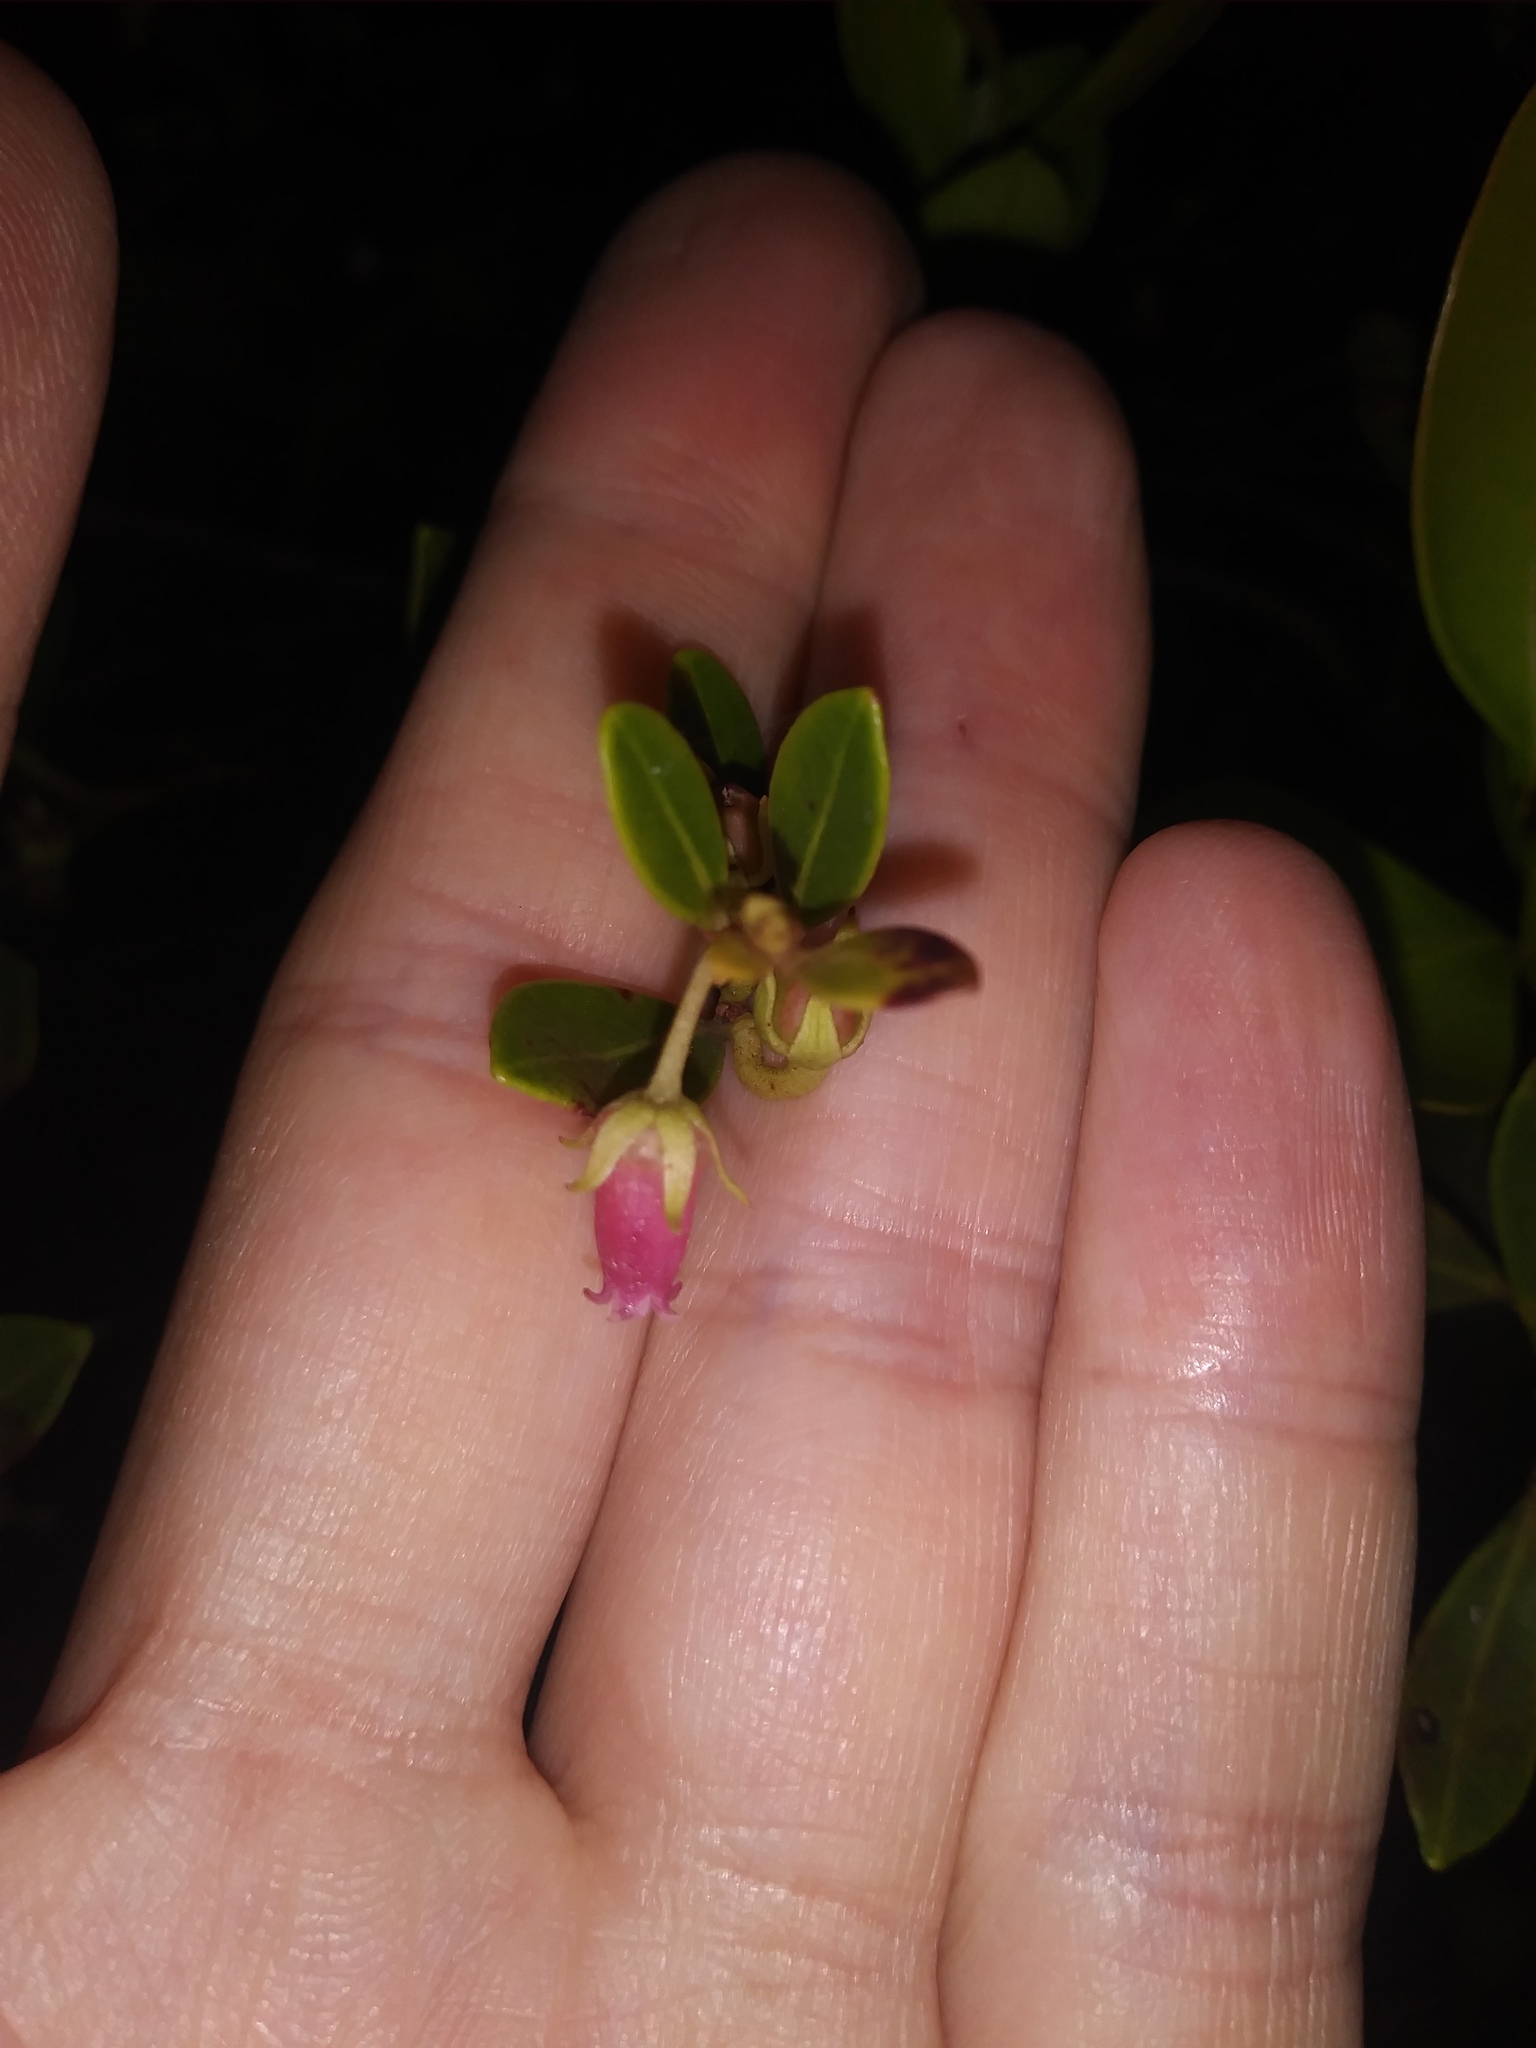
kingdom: Plantae
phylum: Tracheophyta
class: Magnoliopsida
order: Ericales
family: Ericaceae
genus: Lyonia
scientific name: Lyonia lucida
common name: Fetterbush
